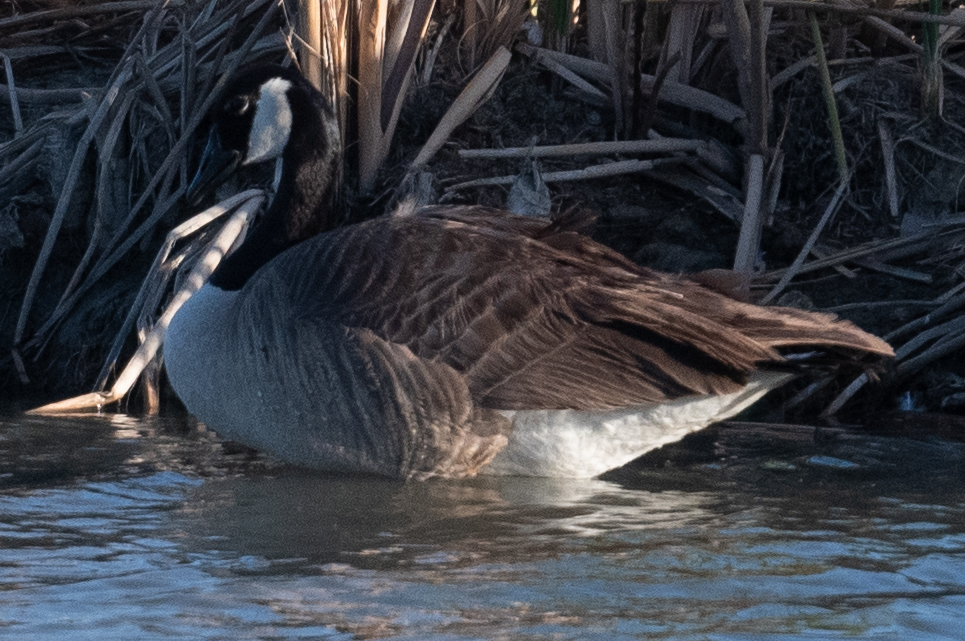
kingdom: Animalia
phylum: Chordata
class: Aves
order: Anseriformes
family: Anatidae
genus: Branta
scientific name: Branta canadensis
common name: Canada goose
